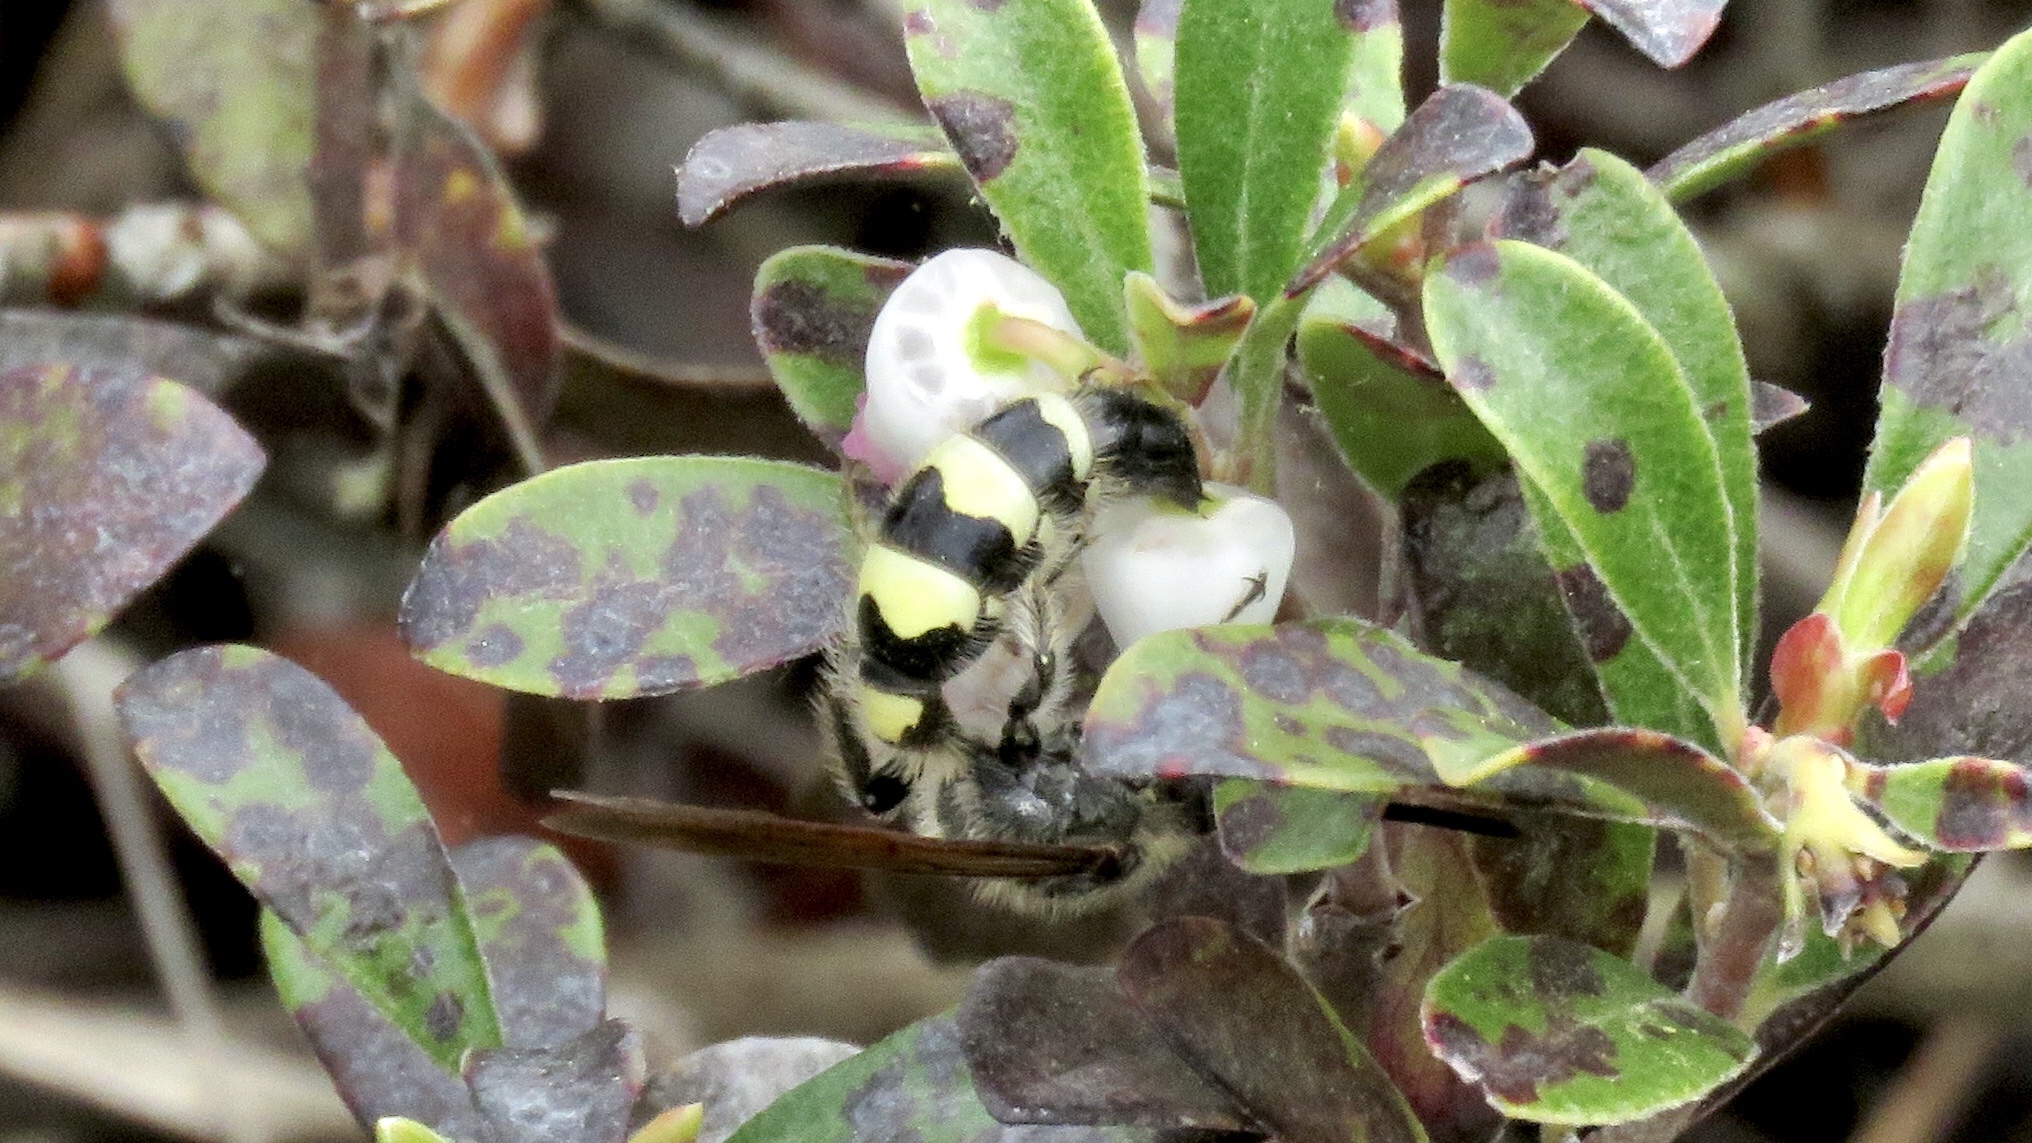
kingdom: Animalia
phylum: Arthropoda
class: Insecta
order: Hymenoptera
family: Scoliidae
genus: Dielis
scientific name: Dielis
